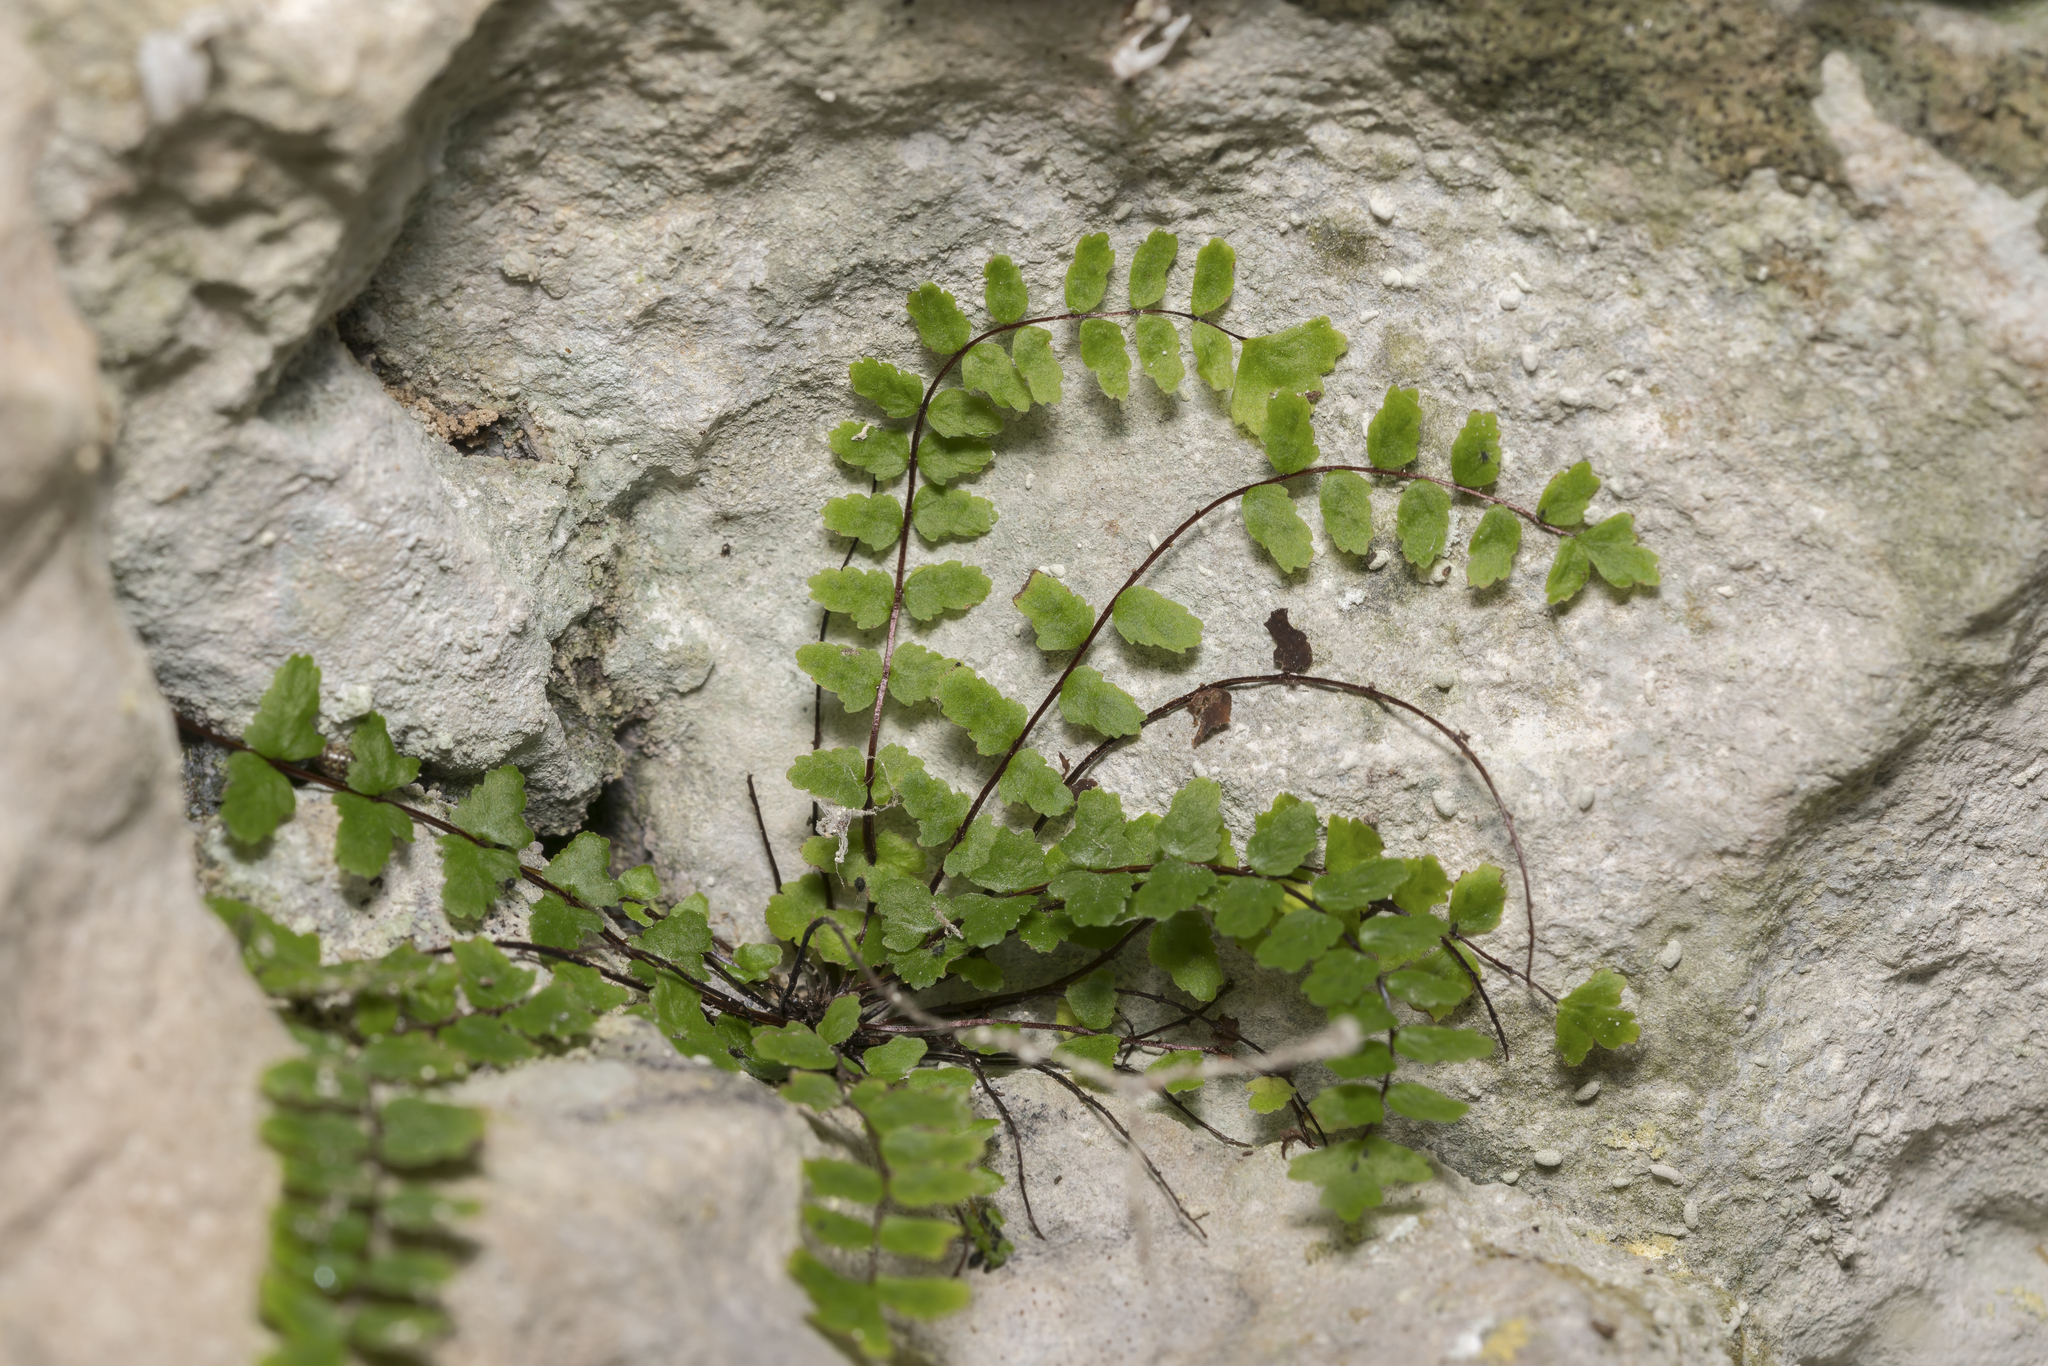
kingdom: Plantae
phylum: Tracheophyta
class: Polypodiopsida
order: Polypodiales
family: Aspleniaceae
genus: Asplenium
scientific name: Asplenium trichomanes
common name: Maidenhair spleenwort
